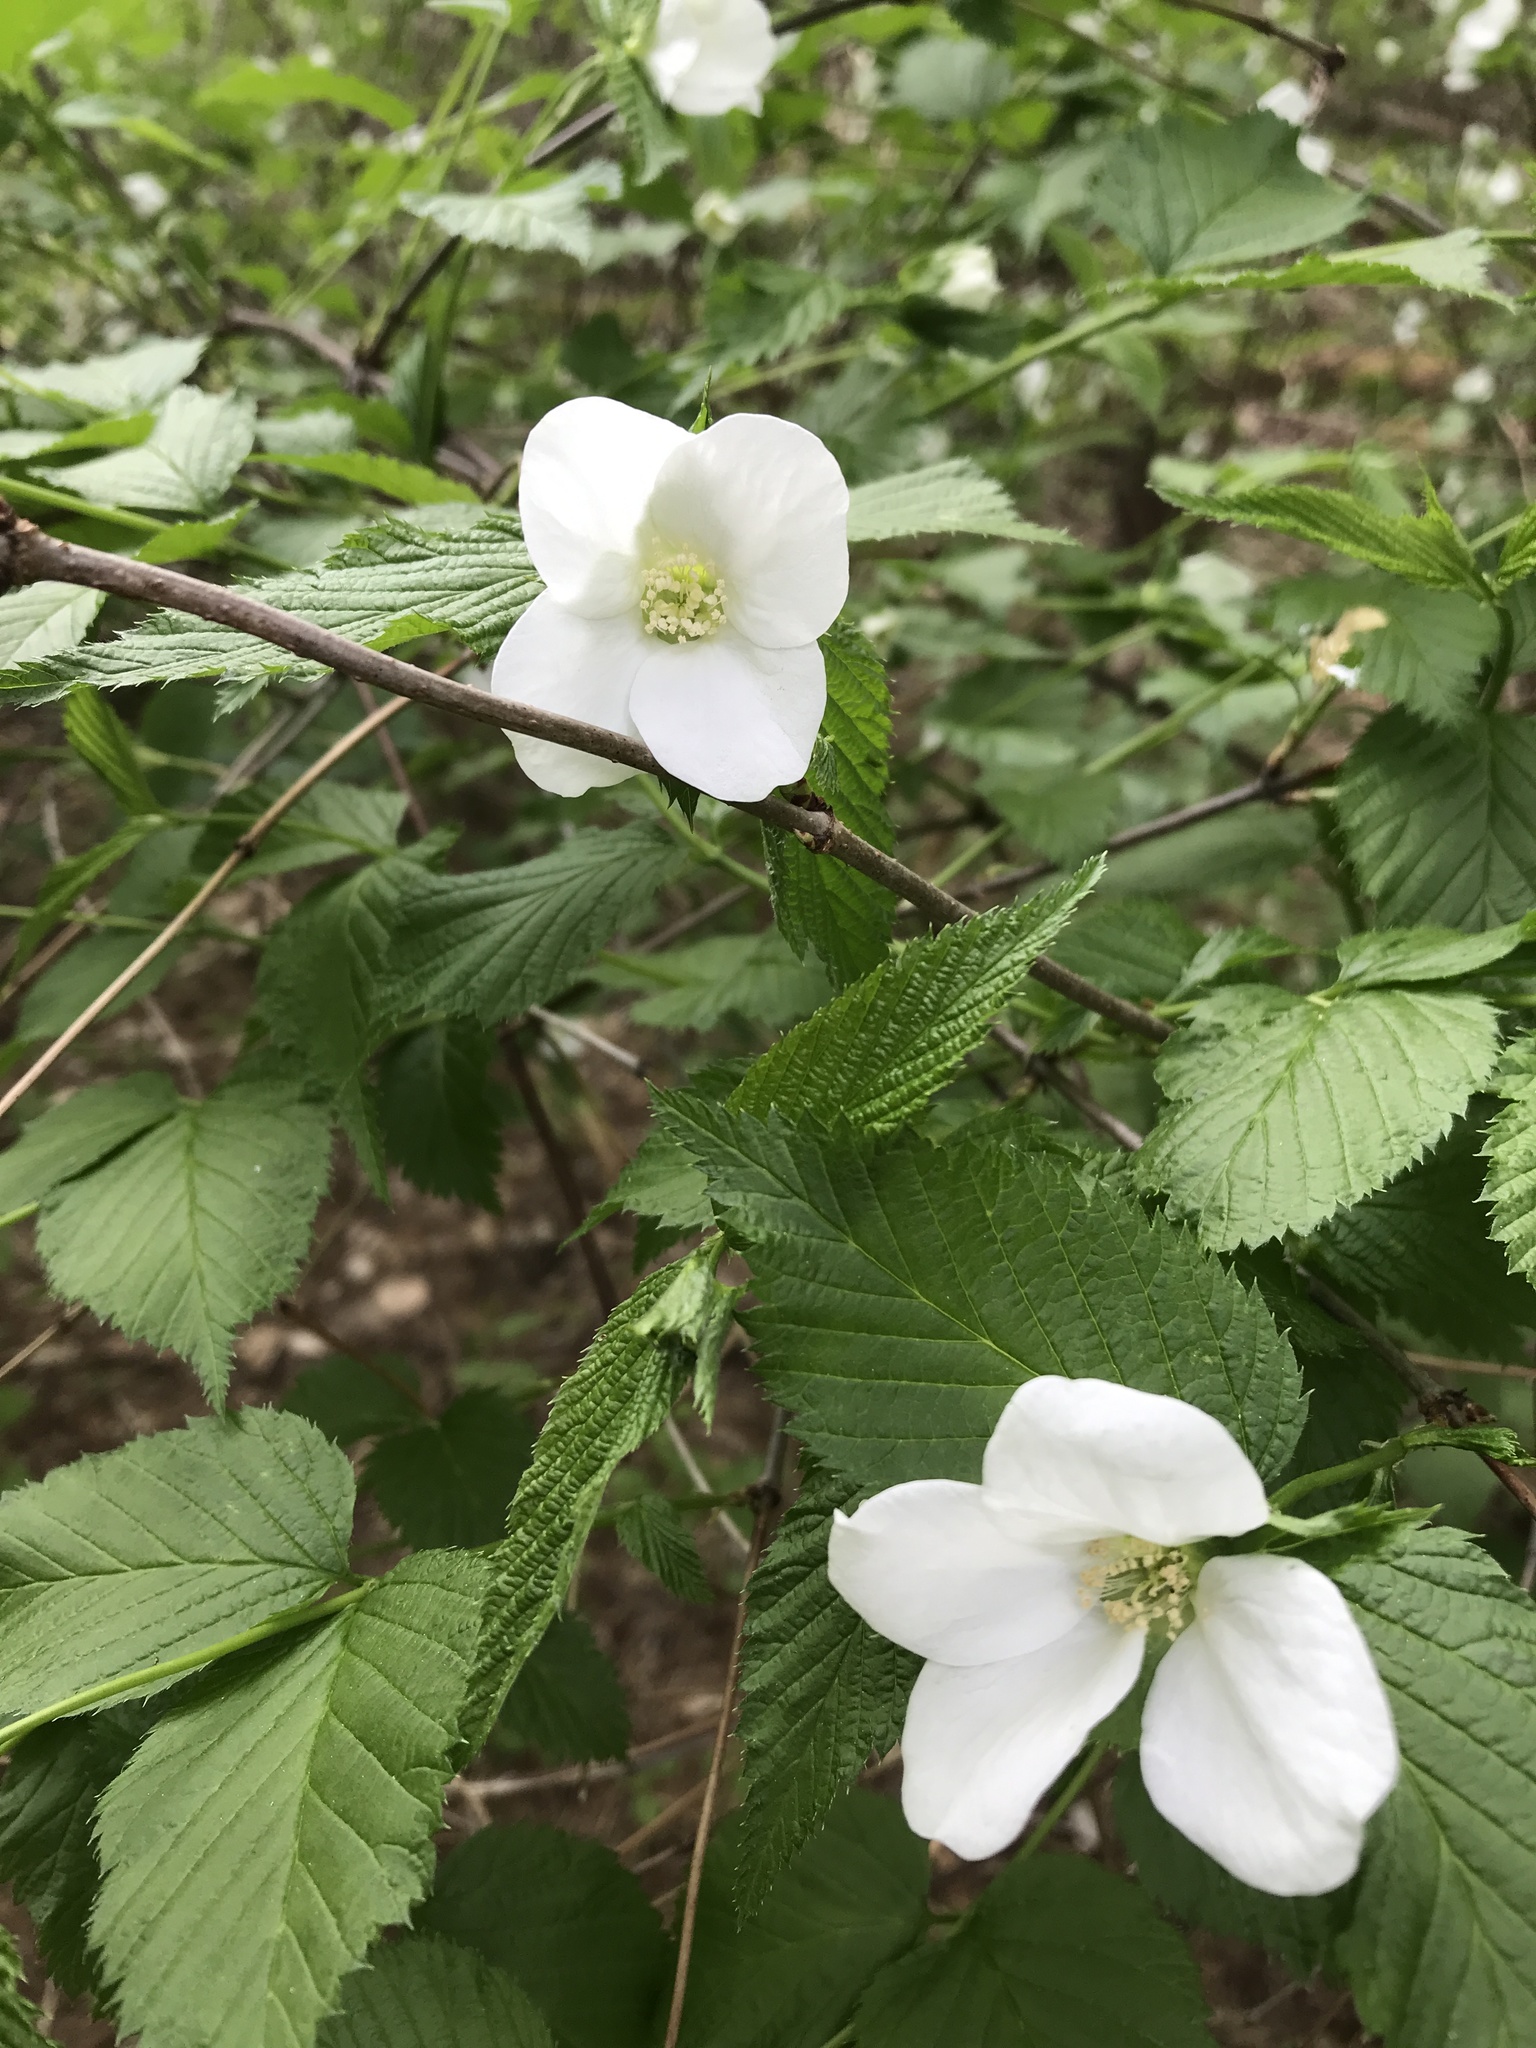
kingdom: Plantae
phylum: Tracheophyta
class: Magnoliopsida
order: Rosales
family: Rosaceae
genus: Rhodotypos
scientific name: Rhodotypos scandens
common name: Jetbead
